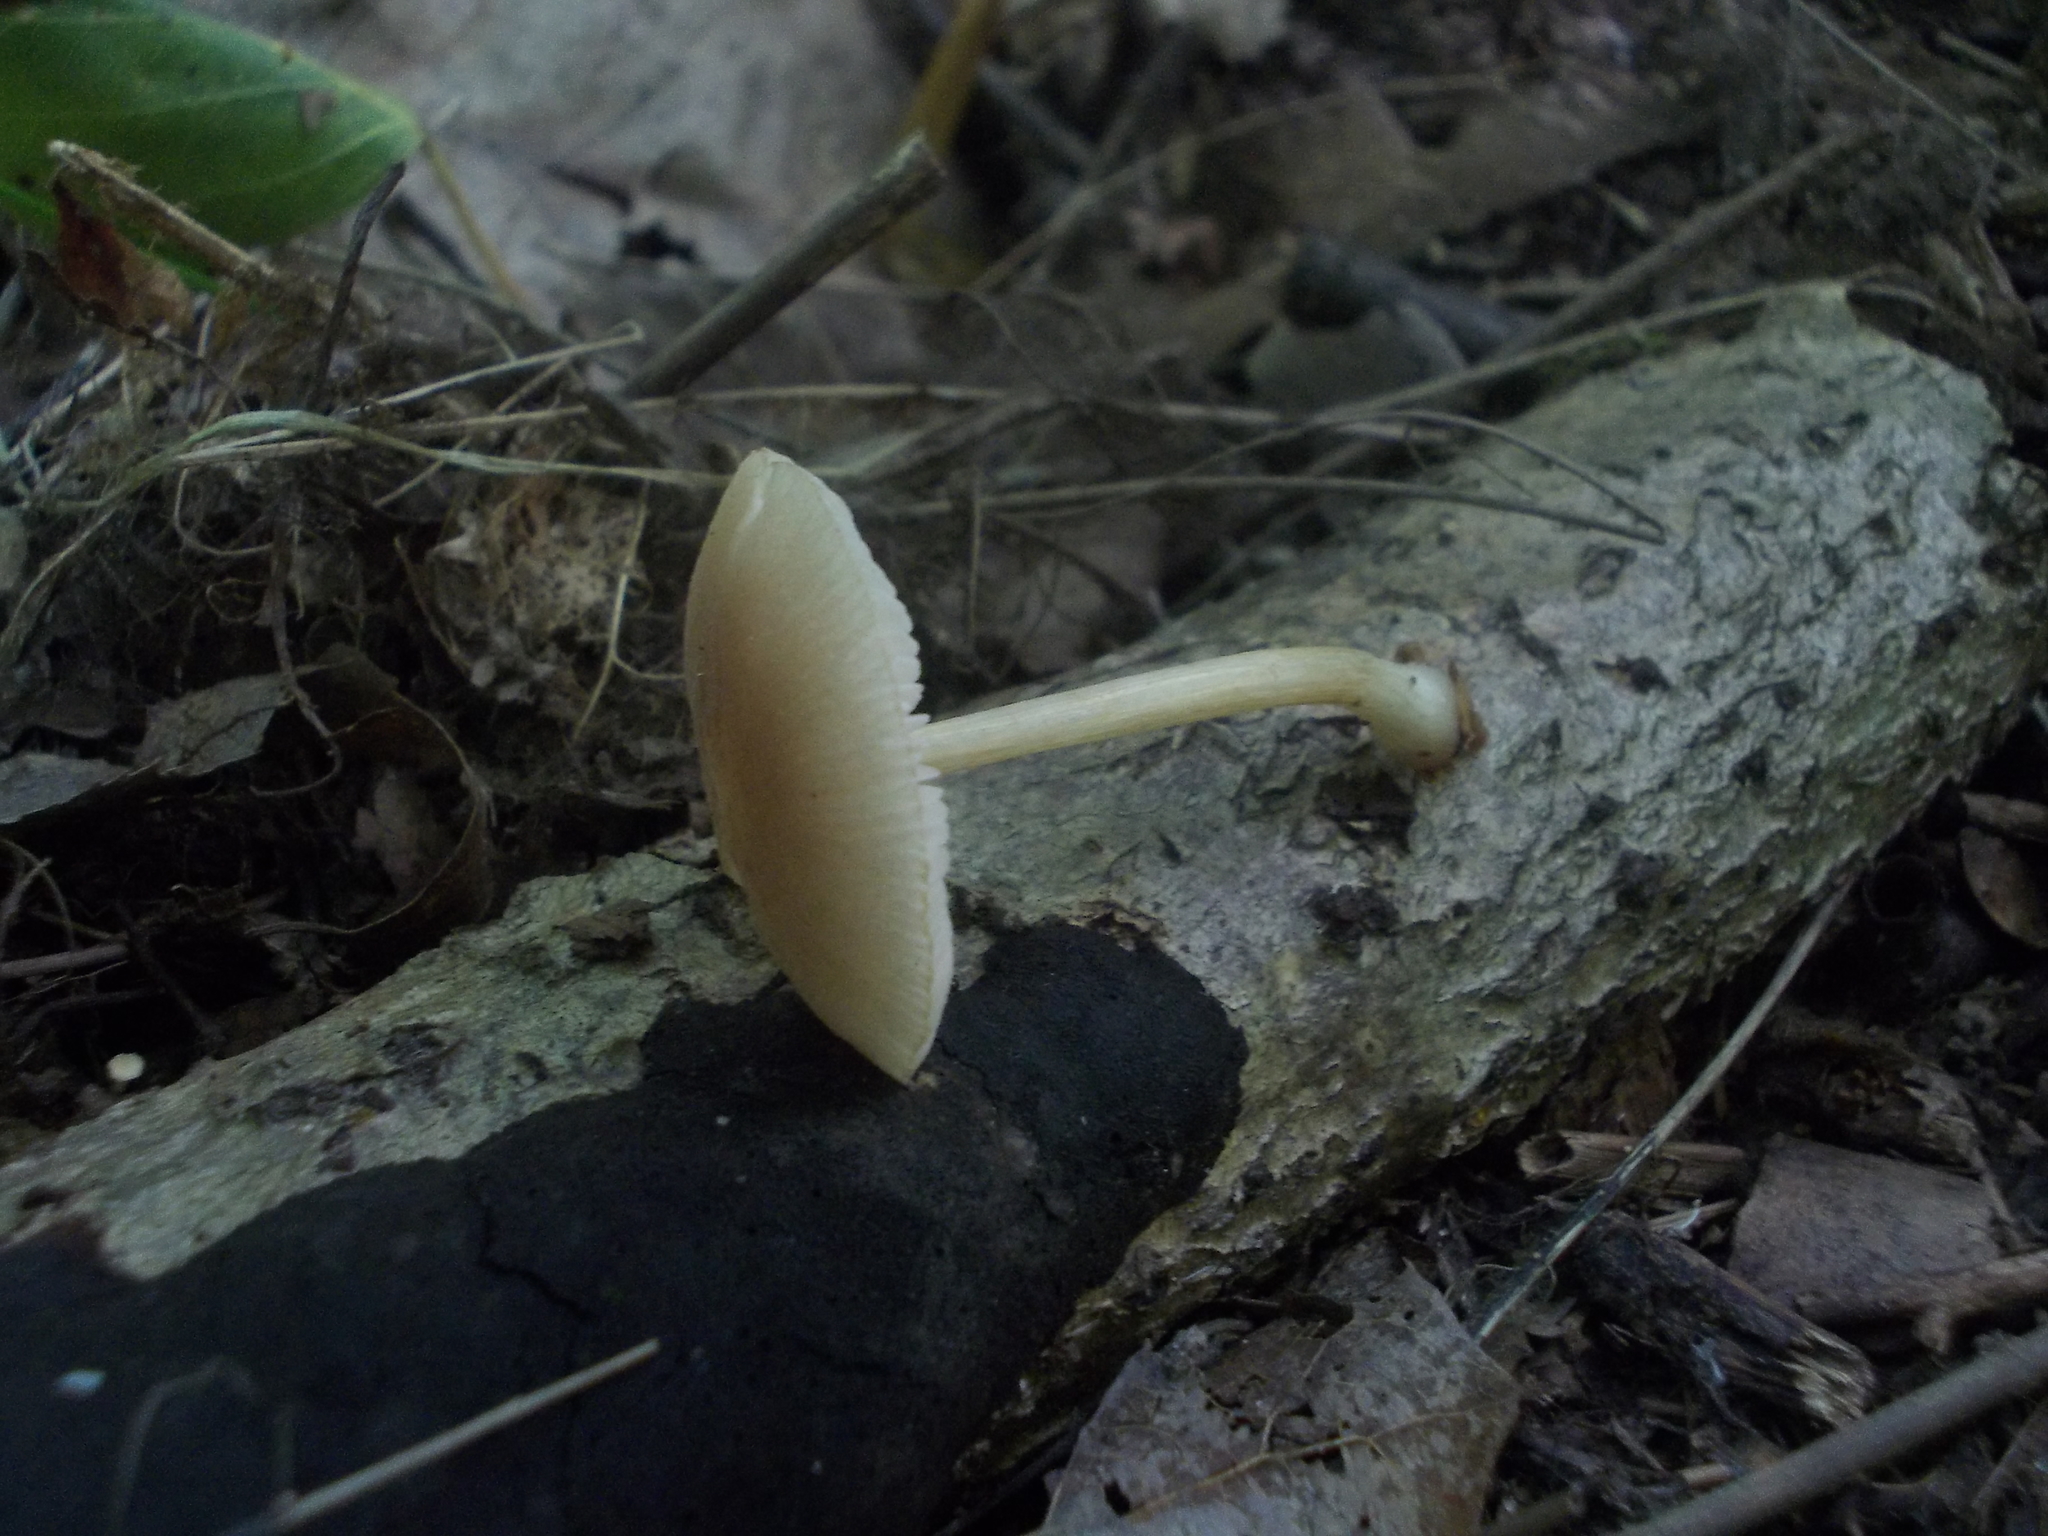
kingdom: Fungi
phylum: Basidiomycota
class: Agaricomycetes
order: Agaricales
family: Pluteaceae
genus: Pluteus
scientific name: Pluteus semibulbosus
